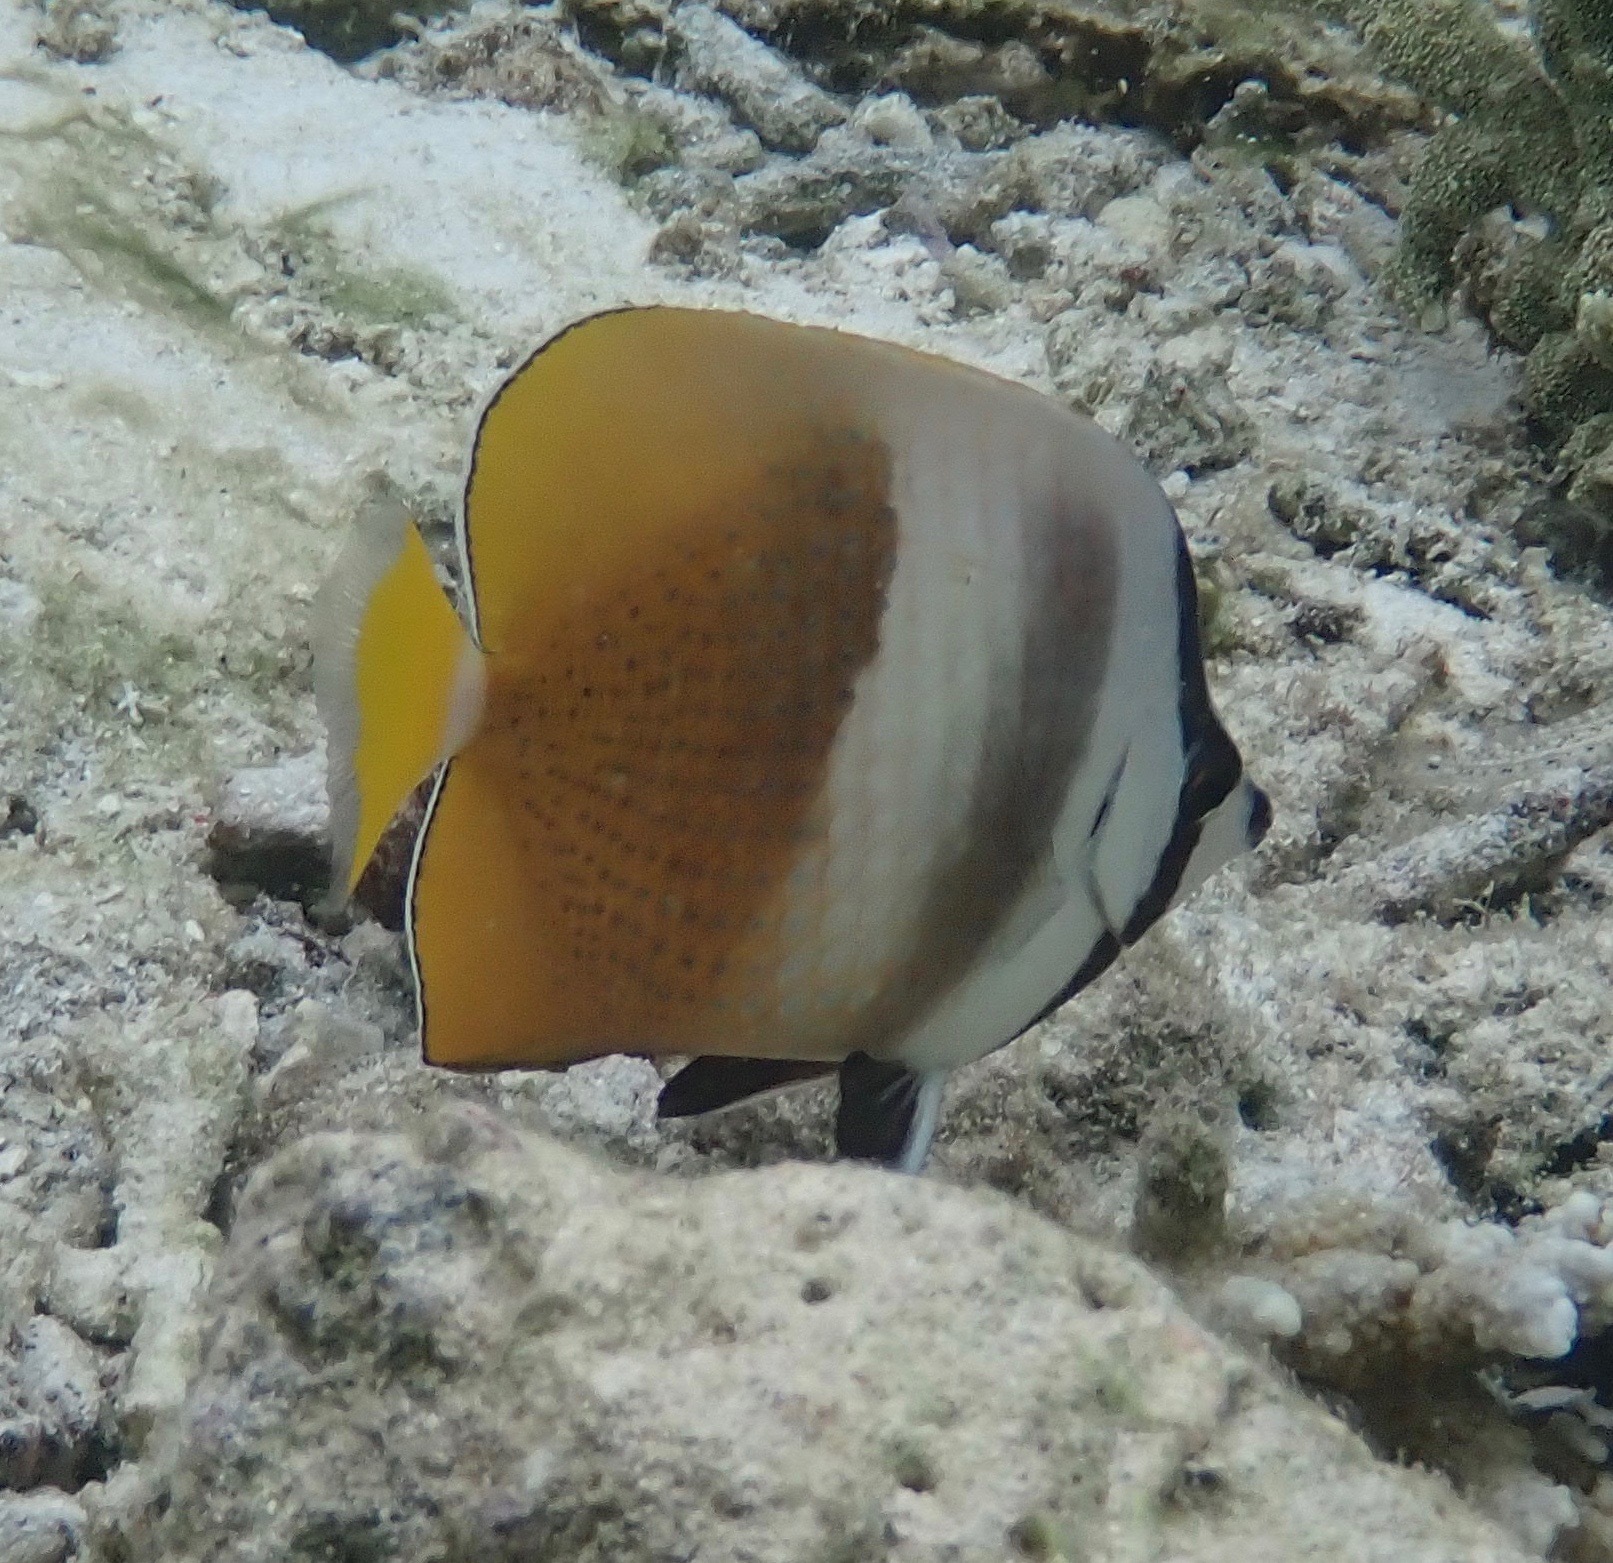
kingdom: Animalia
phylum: Chordata
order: Perciformes
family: Chaetodontidae
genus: Chaetodon
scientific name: Chaetodon kleinii
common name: Klein's butterflyfish
